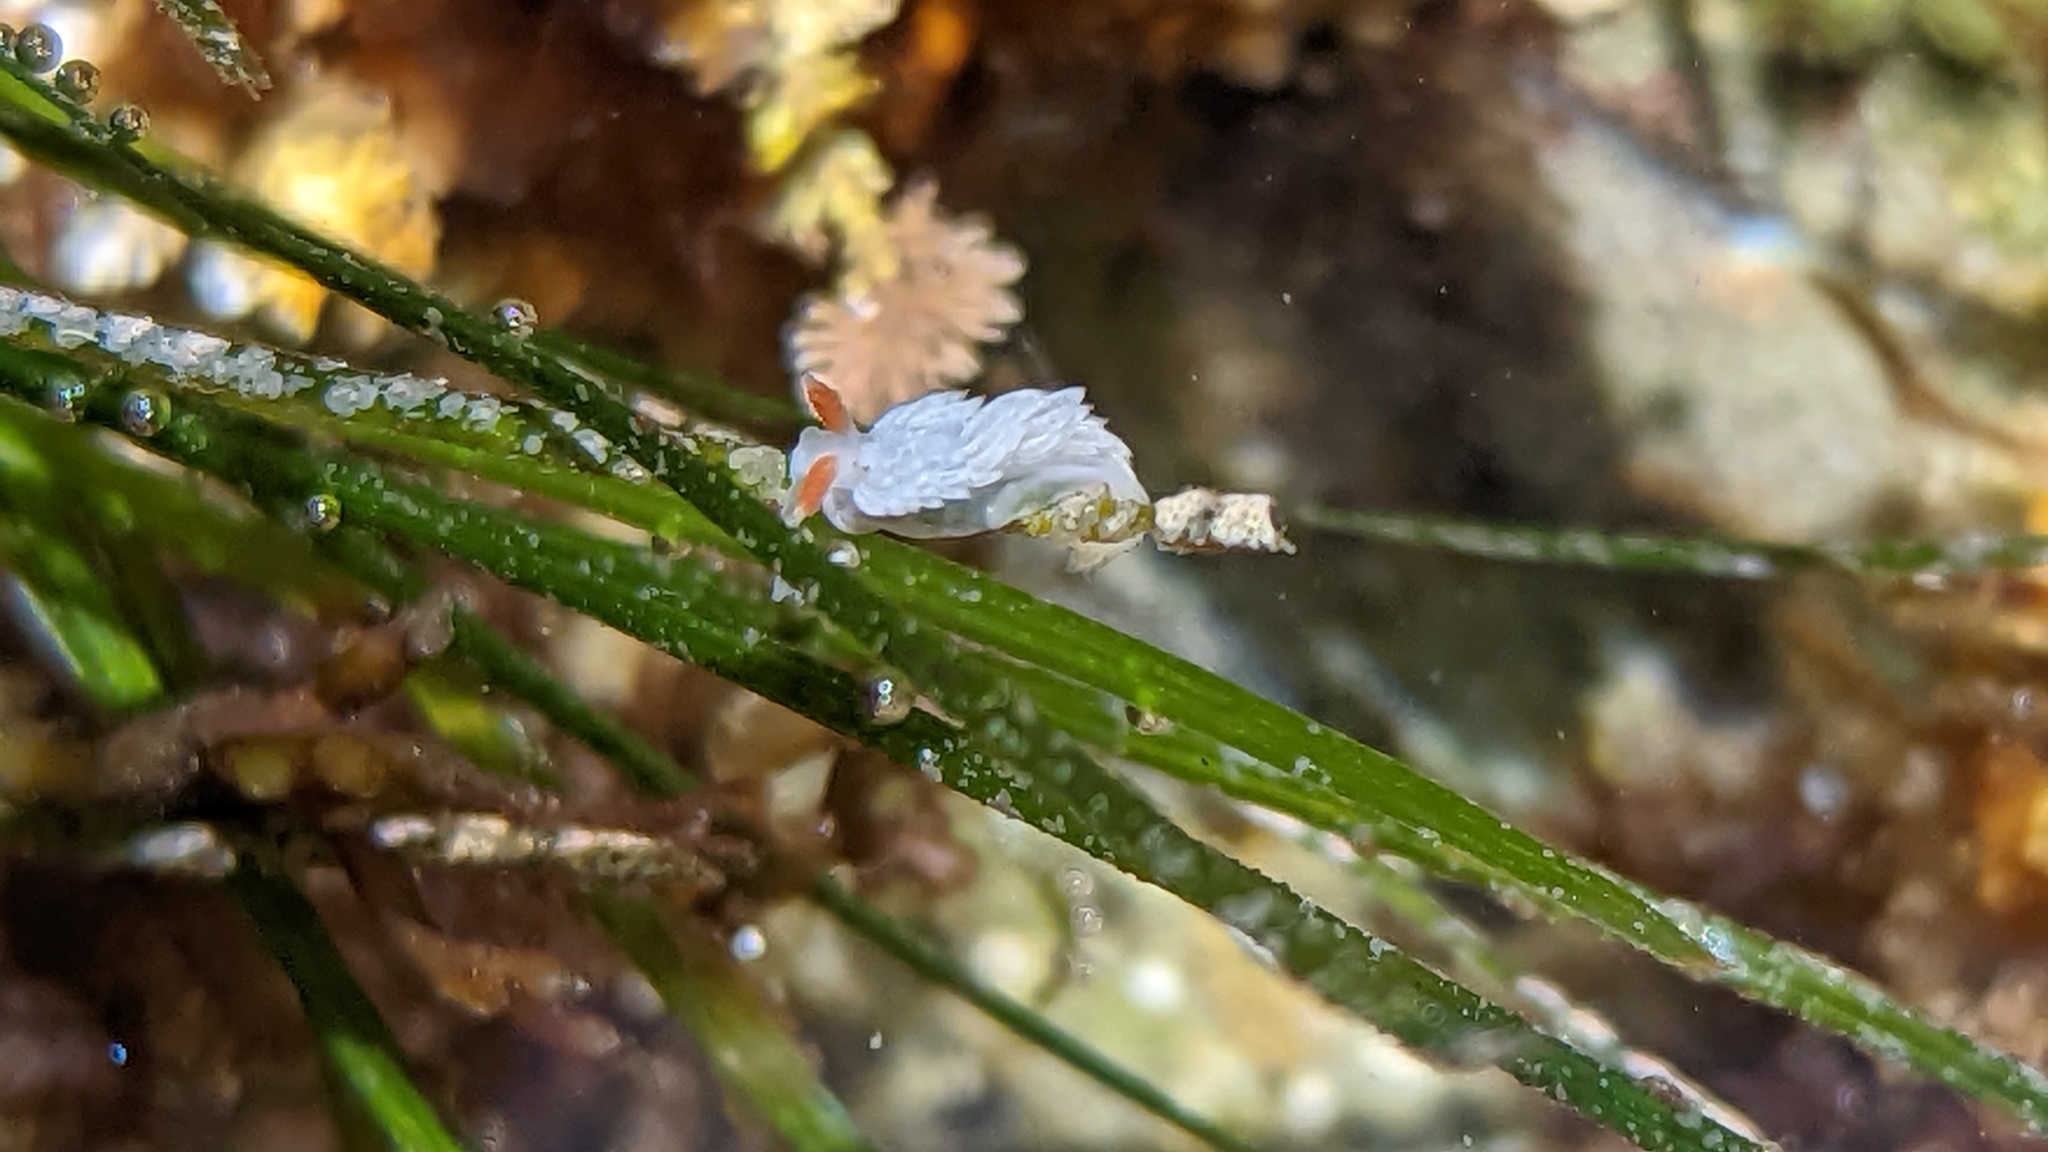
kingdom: Animalia
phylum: Mollusca
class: Gastropoda
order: Nudibranchia
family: Aeolidiidae
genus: Anteaeolidiella
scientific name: Anteaeolidiella oliviae
